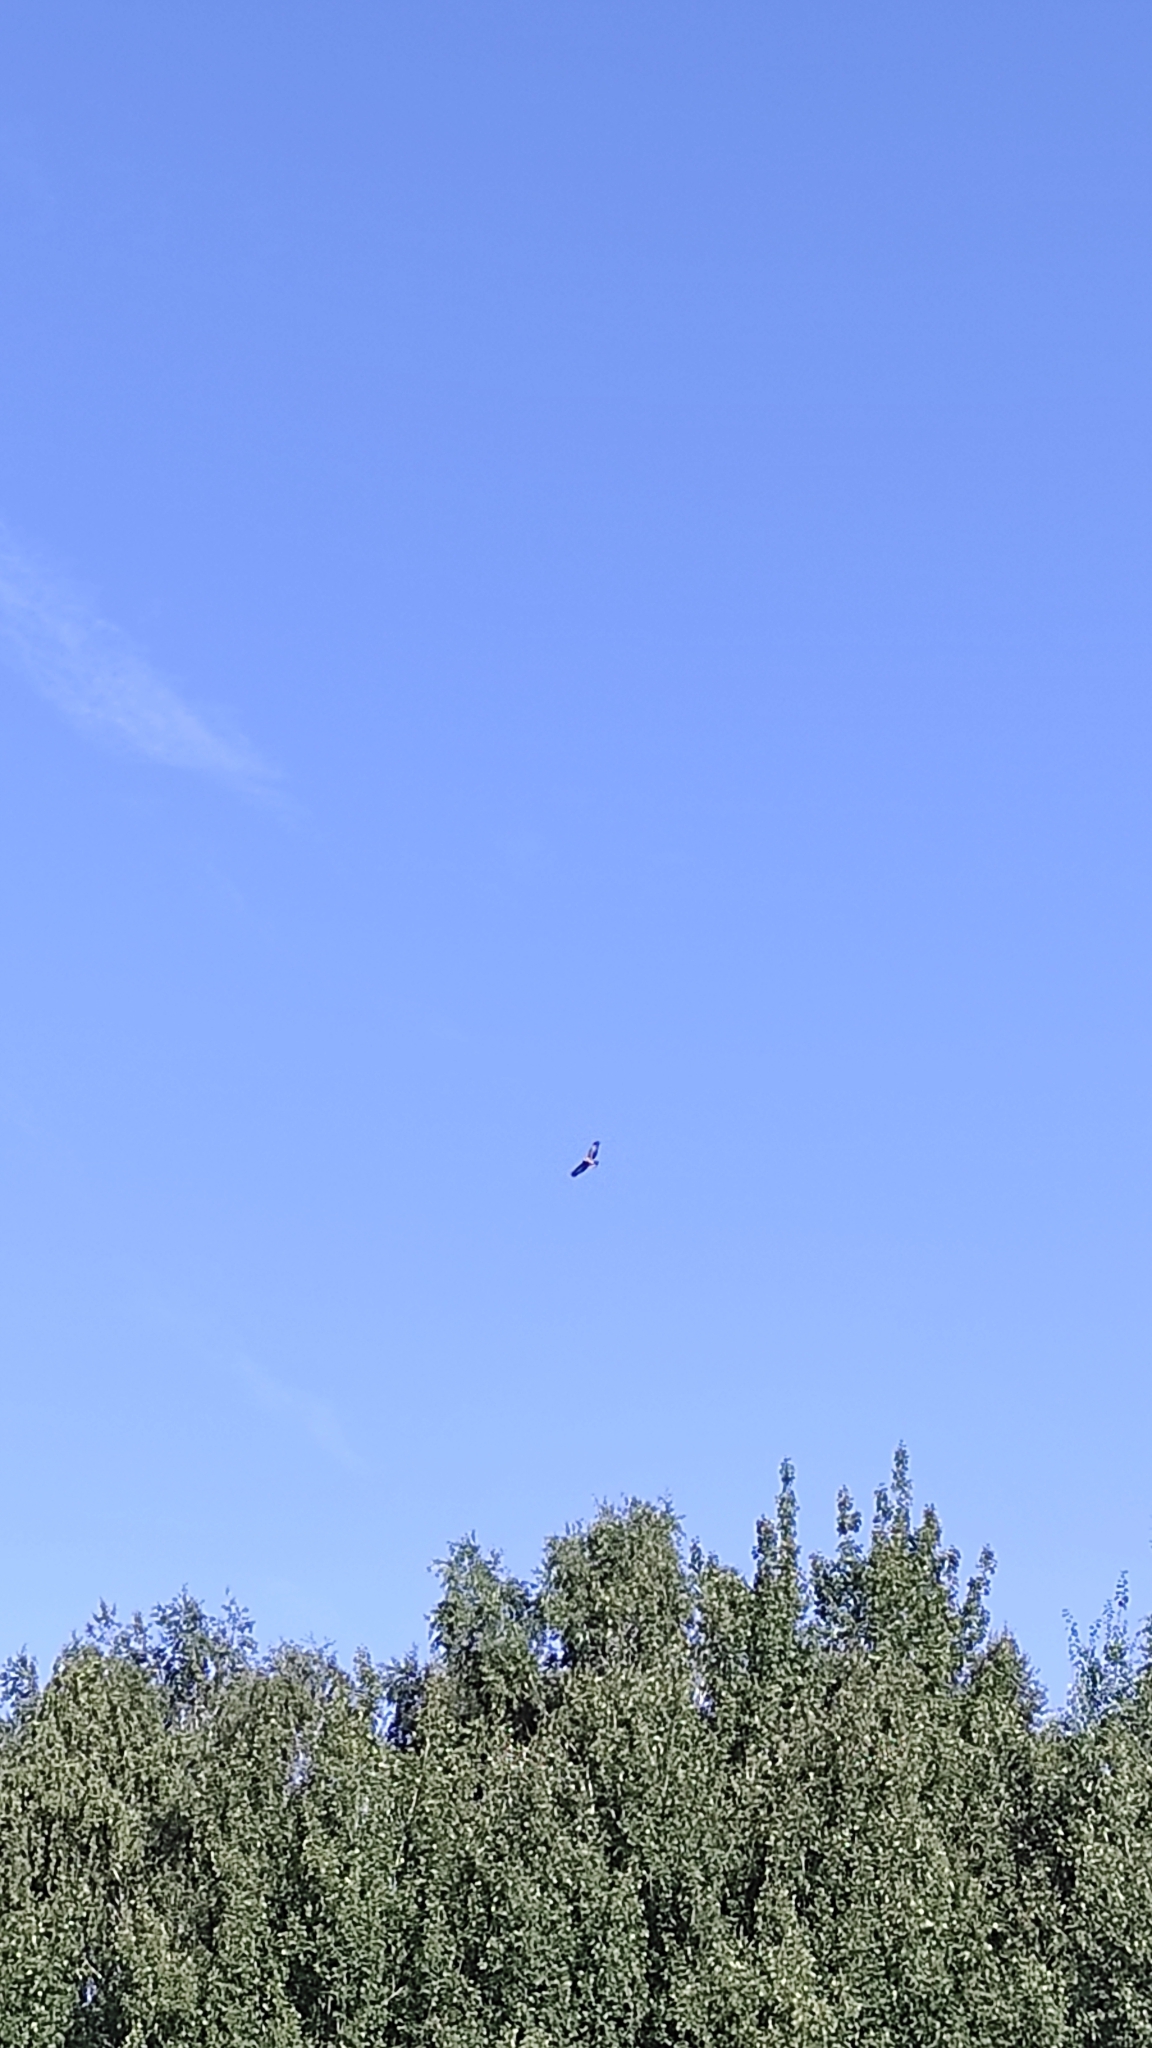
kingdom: Animalia
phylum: Chordata
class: Aves
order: Accipitriformes
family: Accipitridae
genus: Buteo
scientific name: Buteo buteo
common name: Common buzzard
